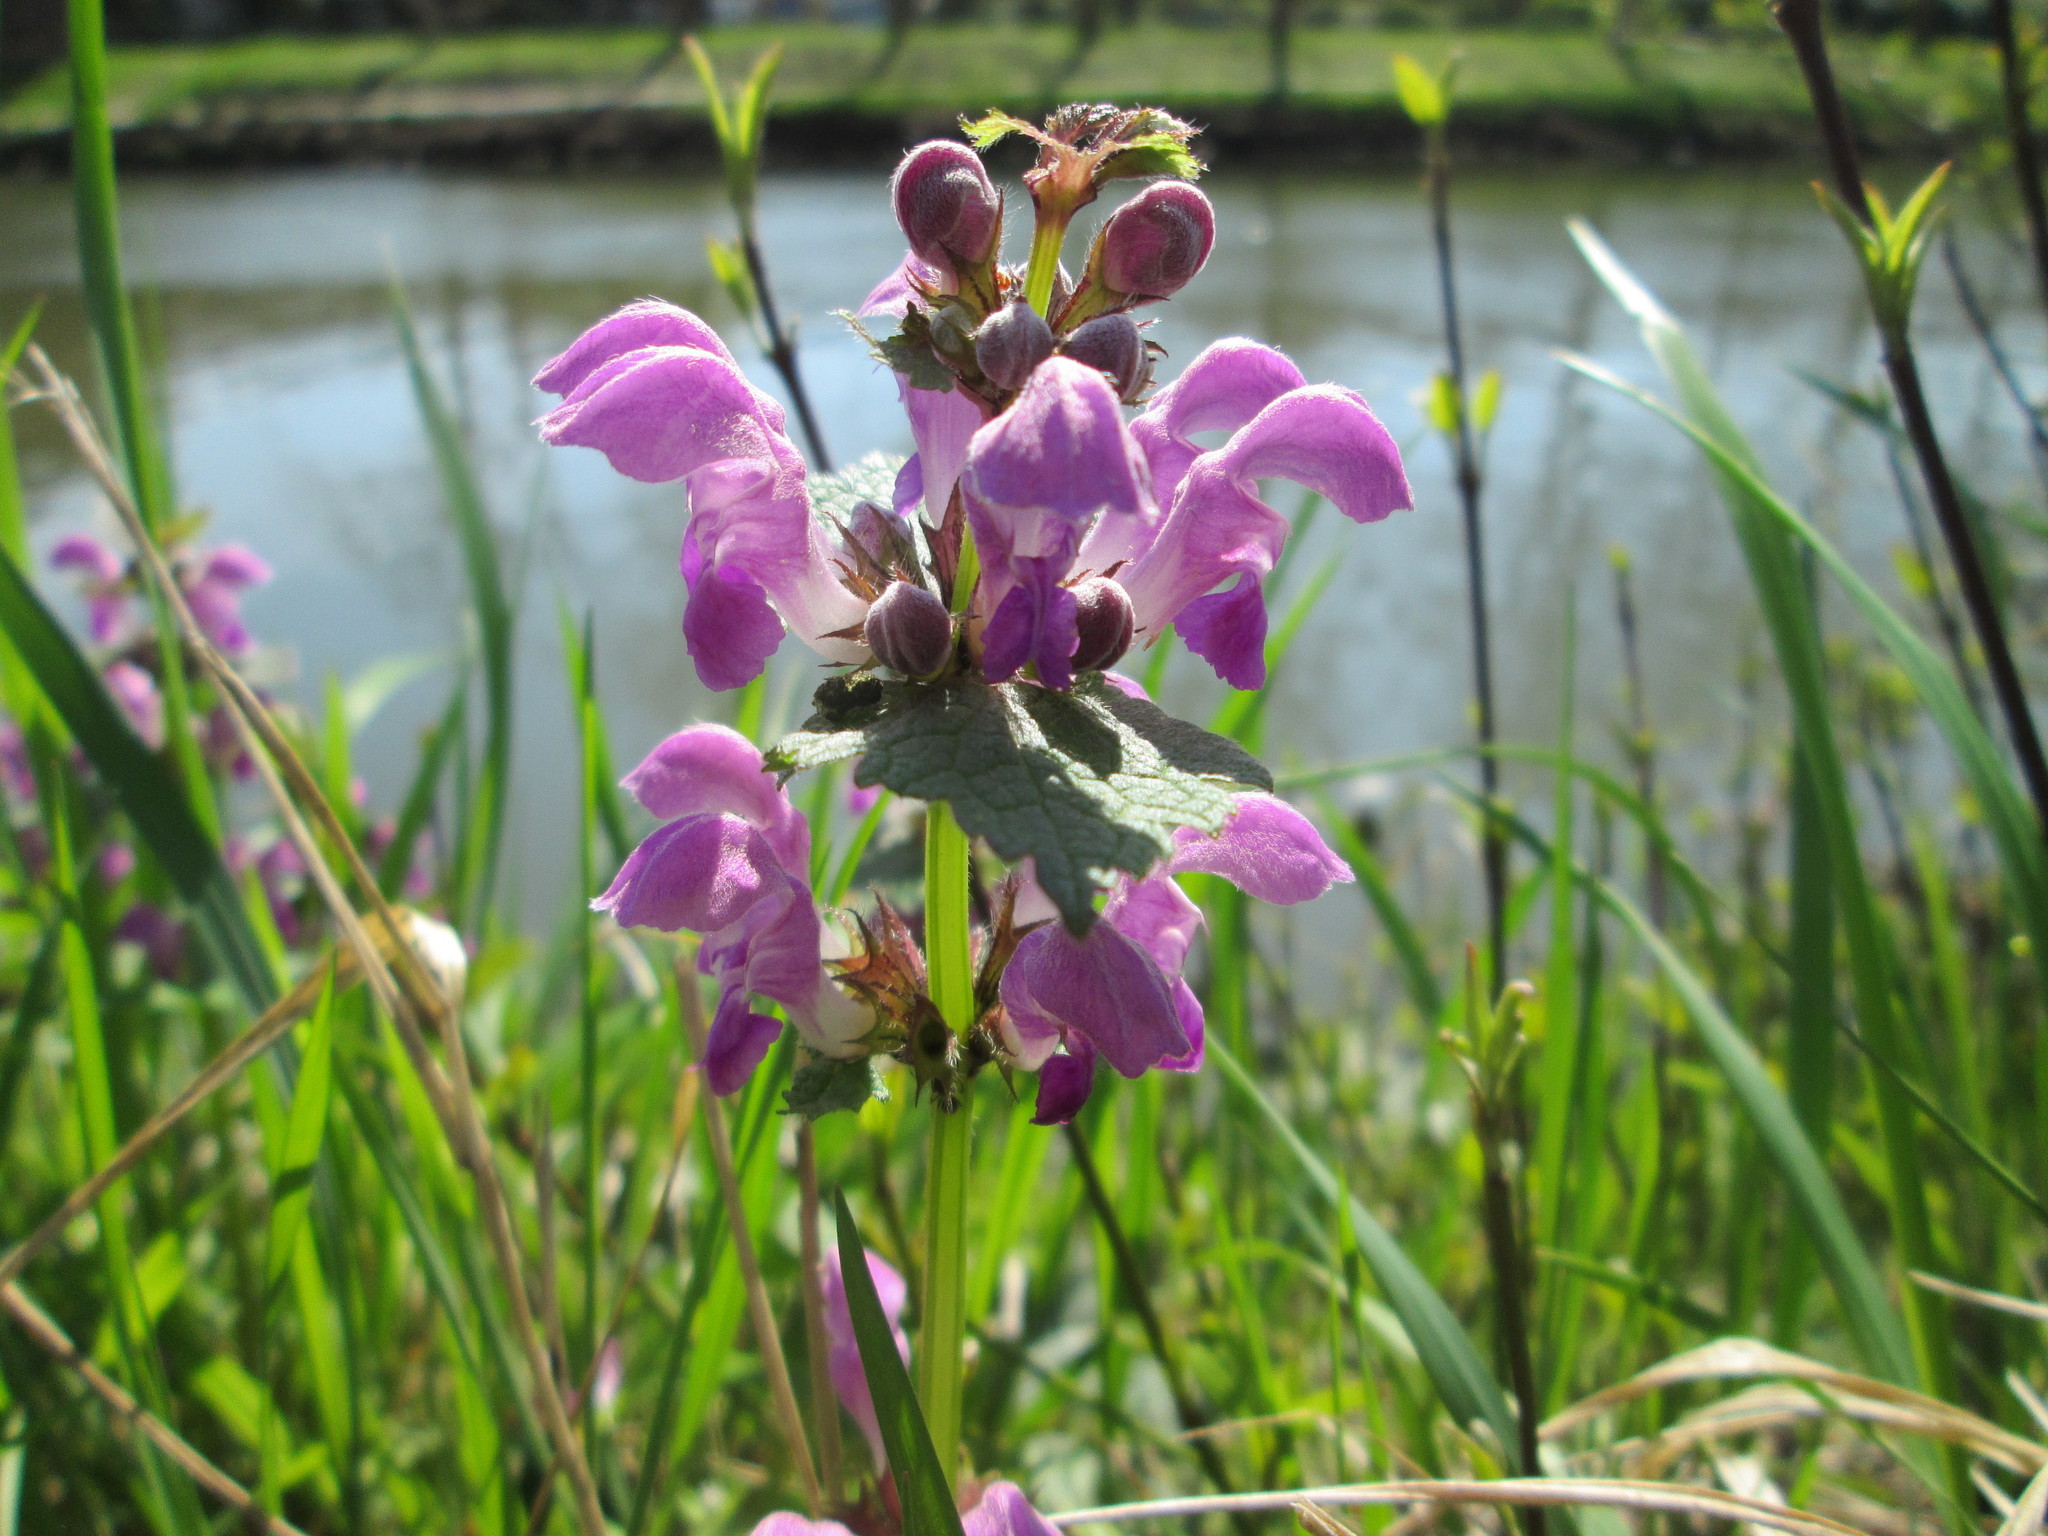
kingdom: Plantae
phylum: Tracheophyta
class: Magnoliopsida
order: Lamiales
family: Lamiaceae
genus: Lamium
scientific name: Lamium maculatum
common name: Spotted dead-nettle
